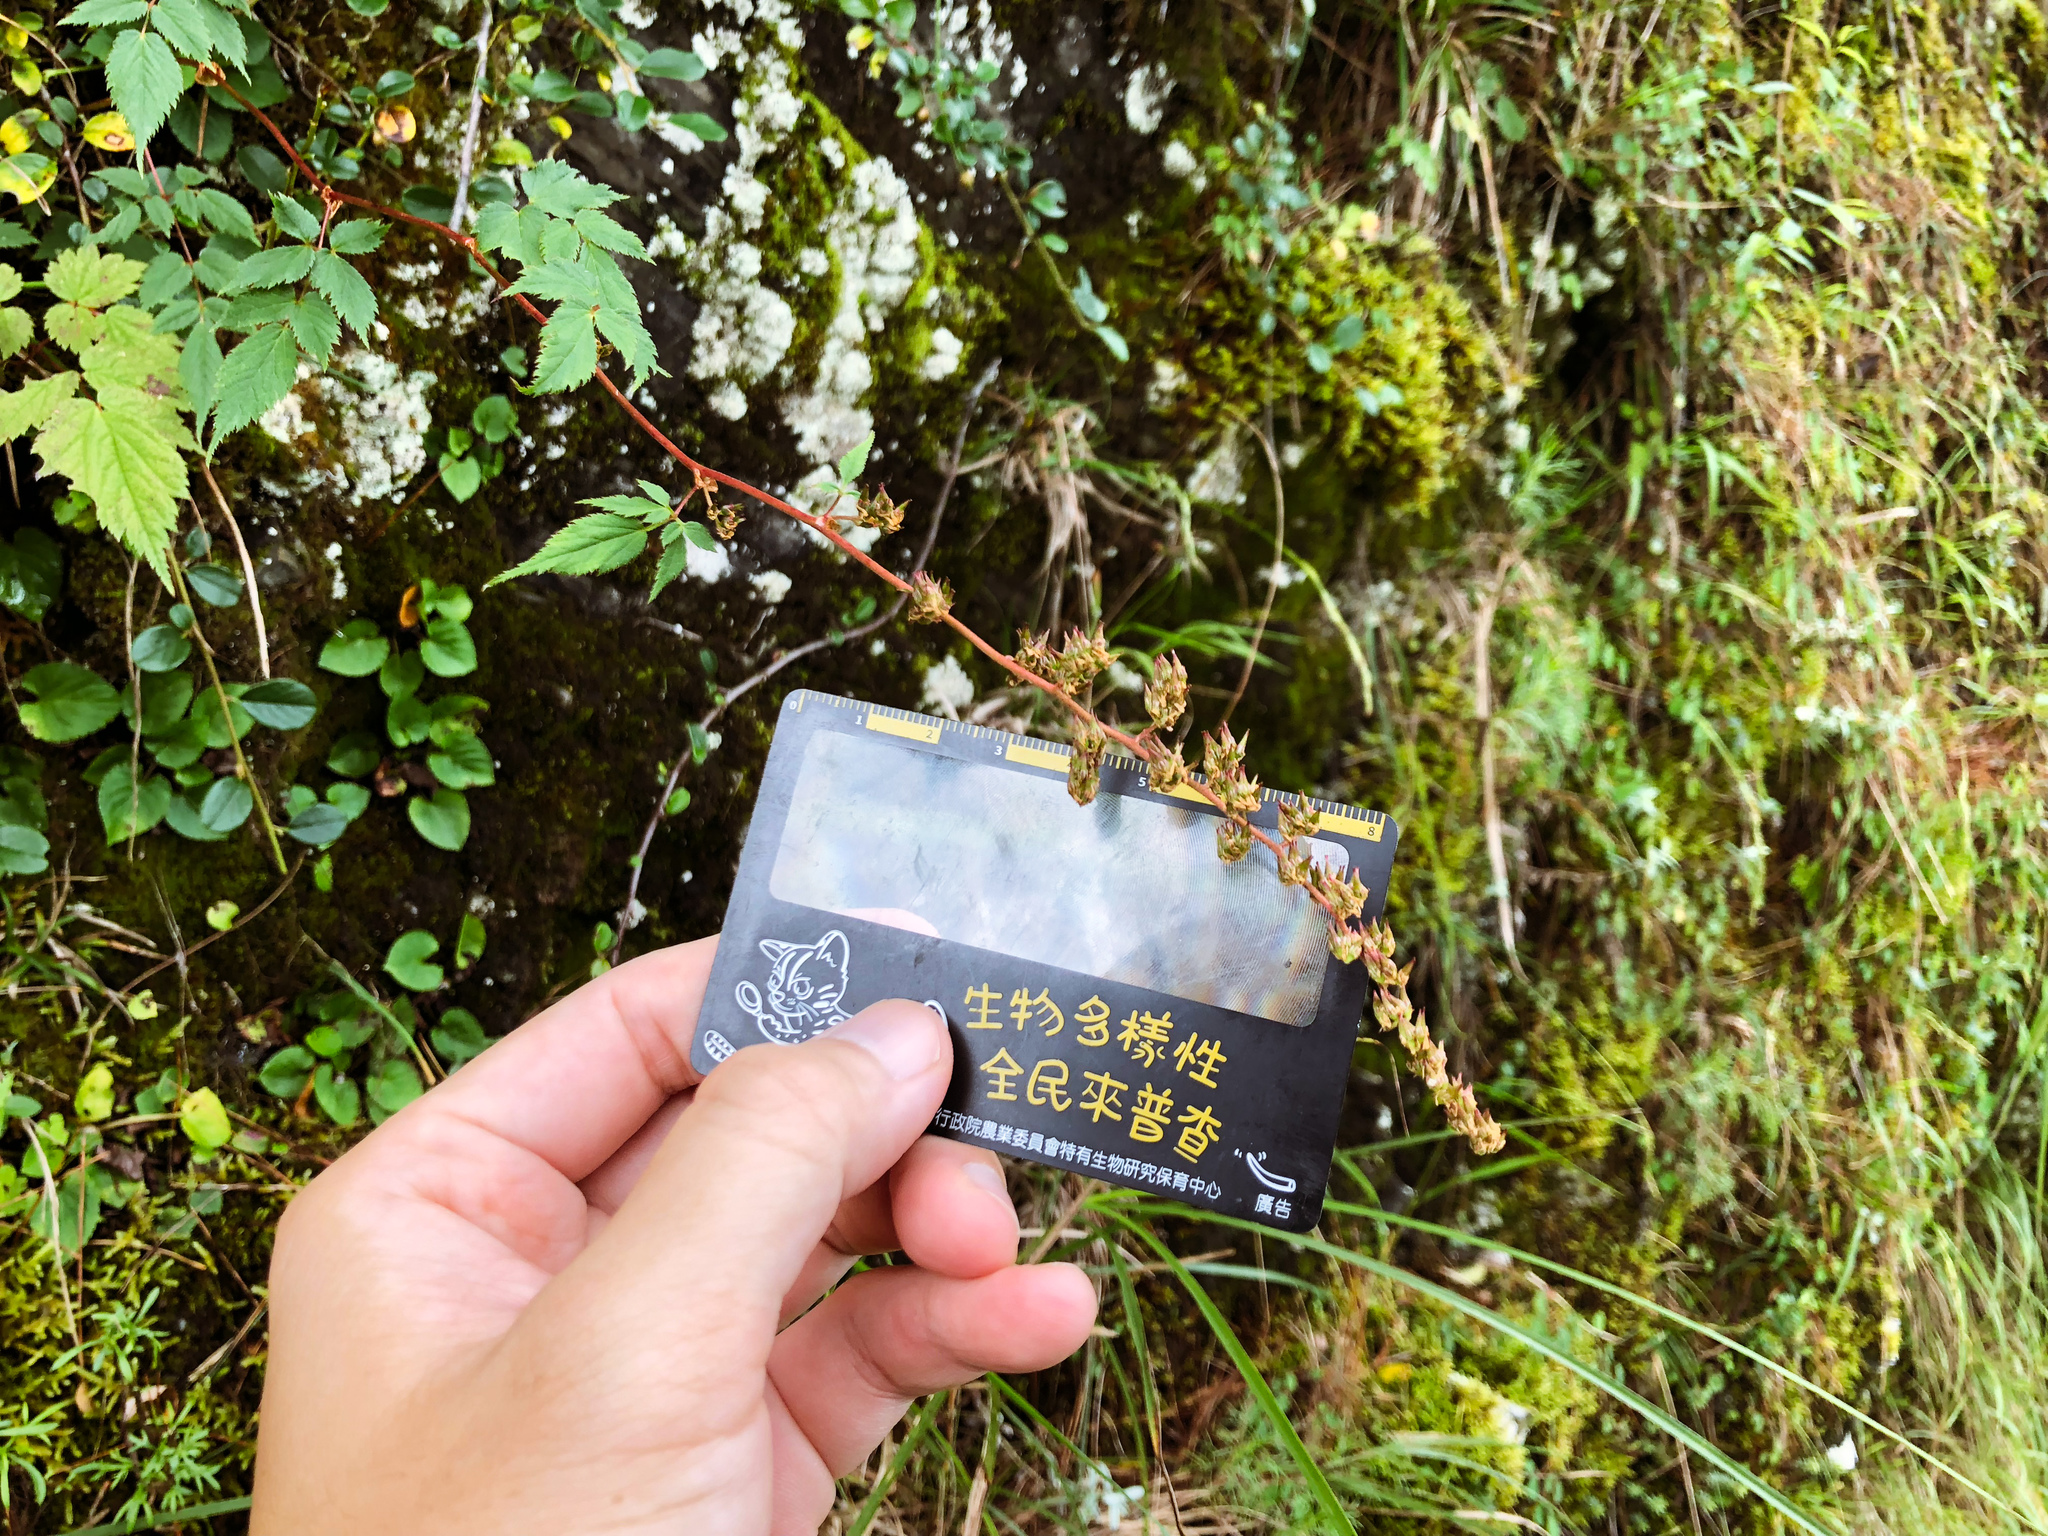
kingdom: Plantae
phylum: Tracheophyta
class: Magnoliopsida
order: Saxifragales
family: Saxifragaceae
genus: Astilbe
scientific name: Astilbe longicarpa
